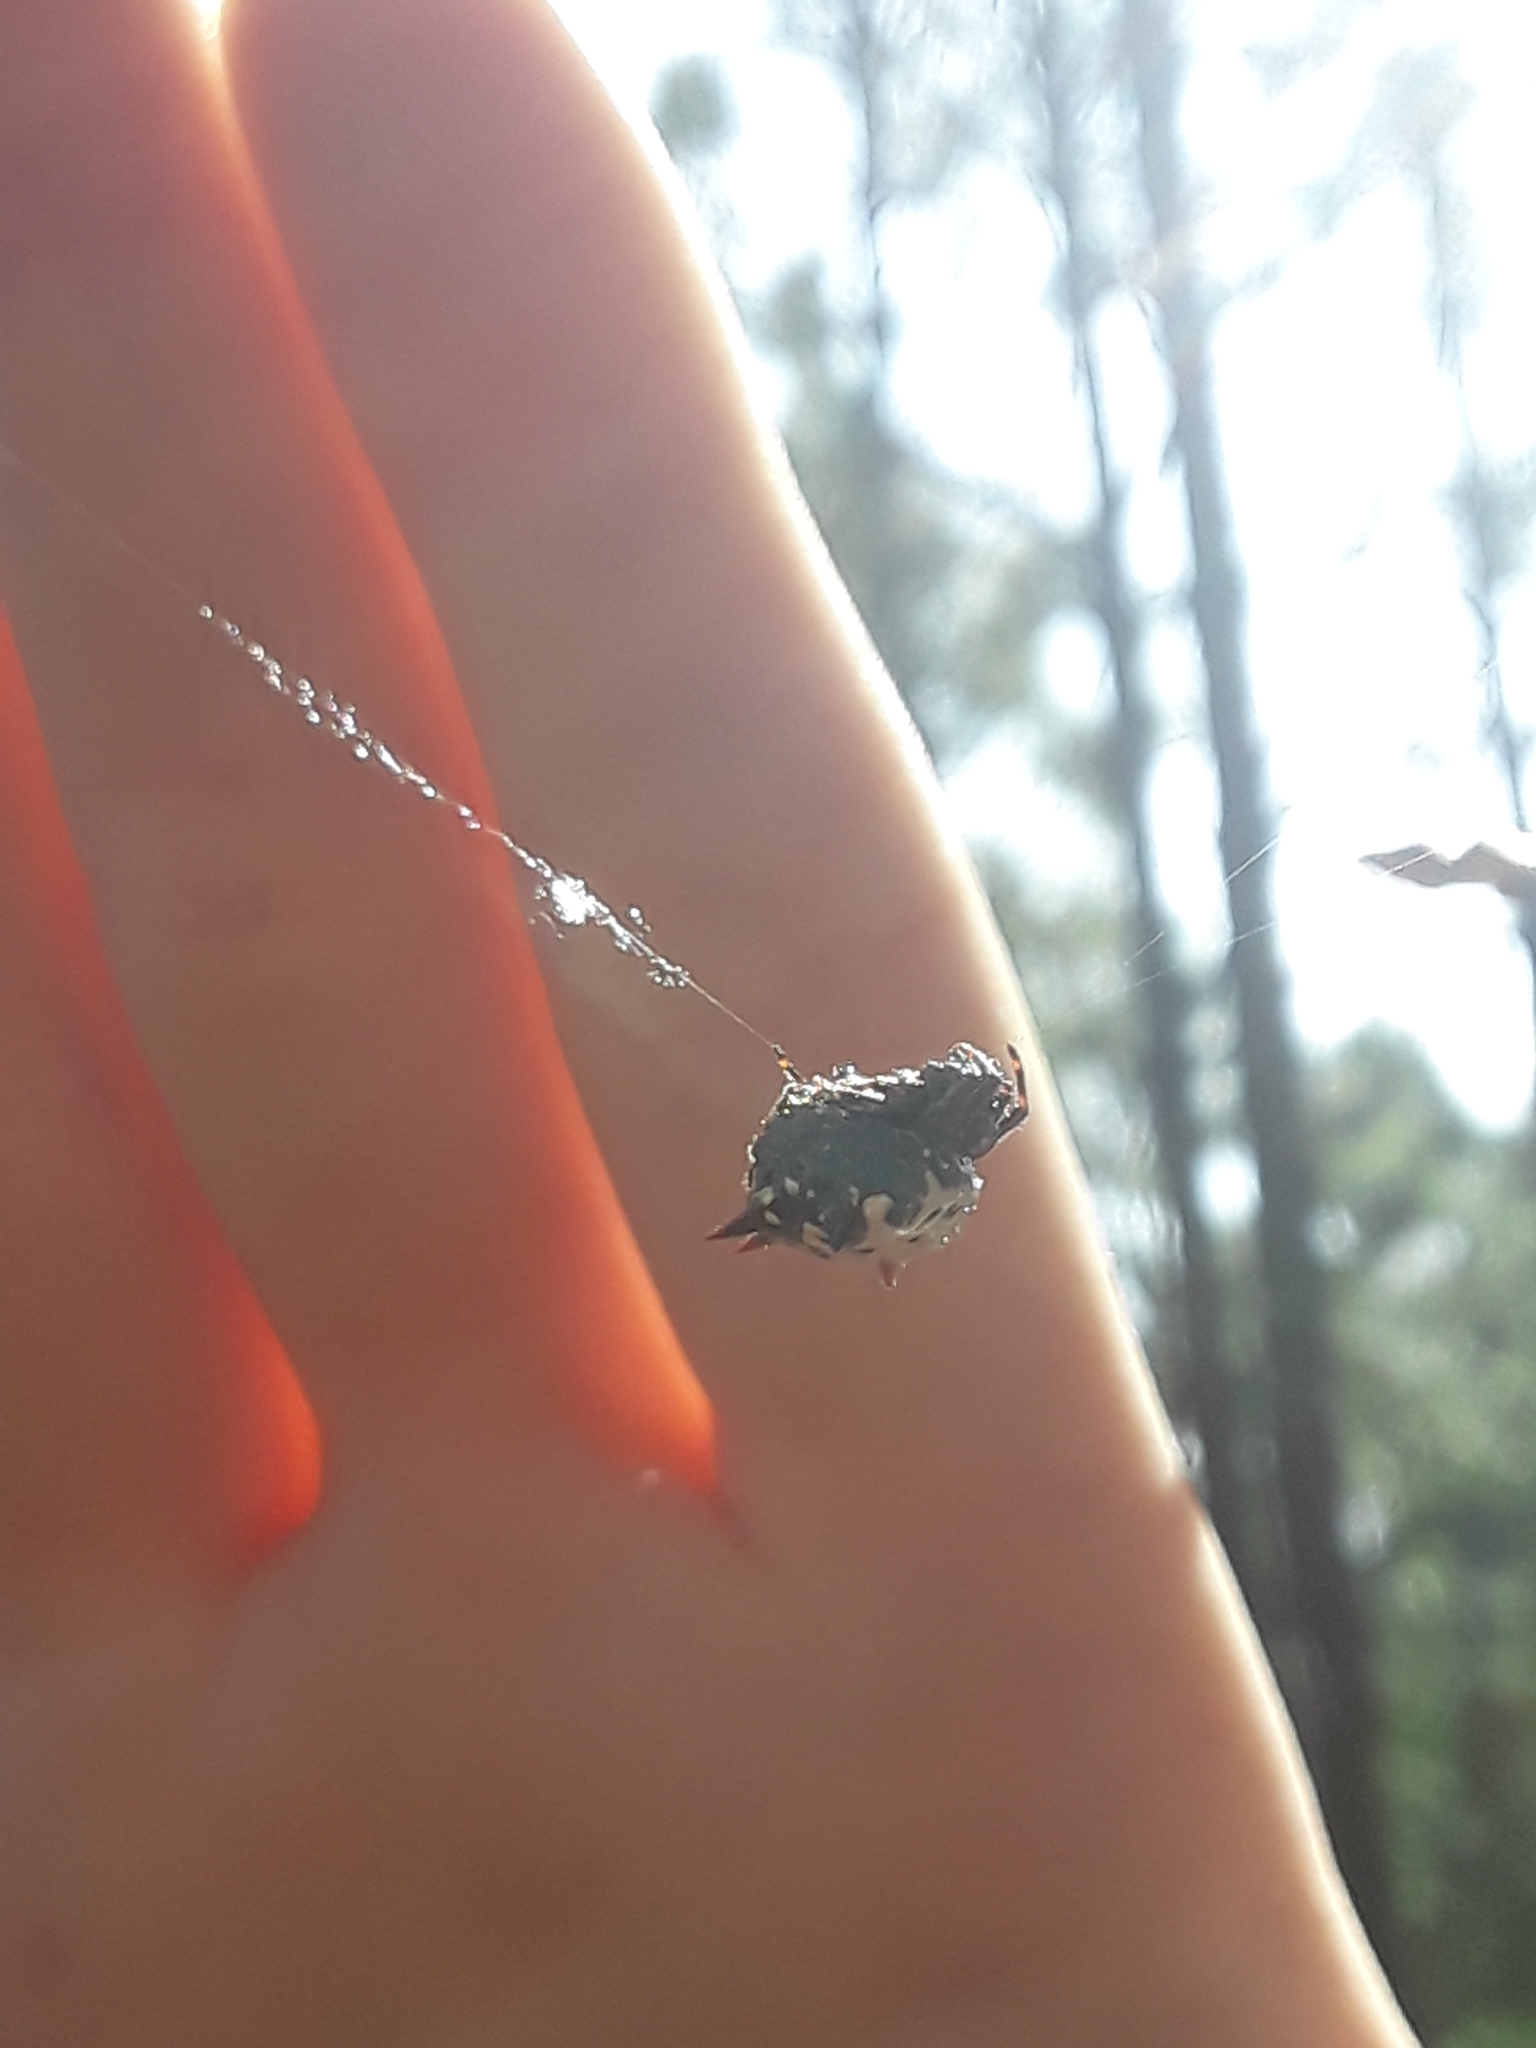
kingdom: Animalia
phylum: Arthropoda
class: Arachnida
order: Araneae
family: Araneidae
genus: Gasteracantha
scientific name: Gasteracantha cancriformis
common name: Orb weavers
